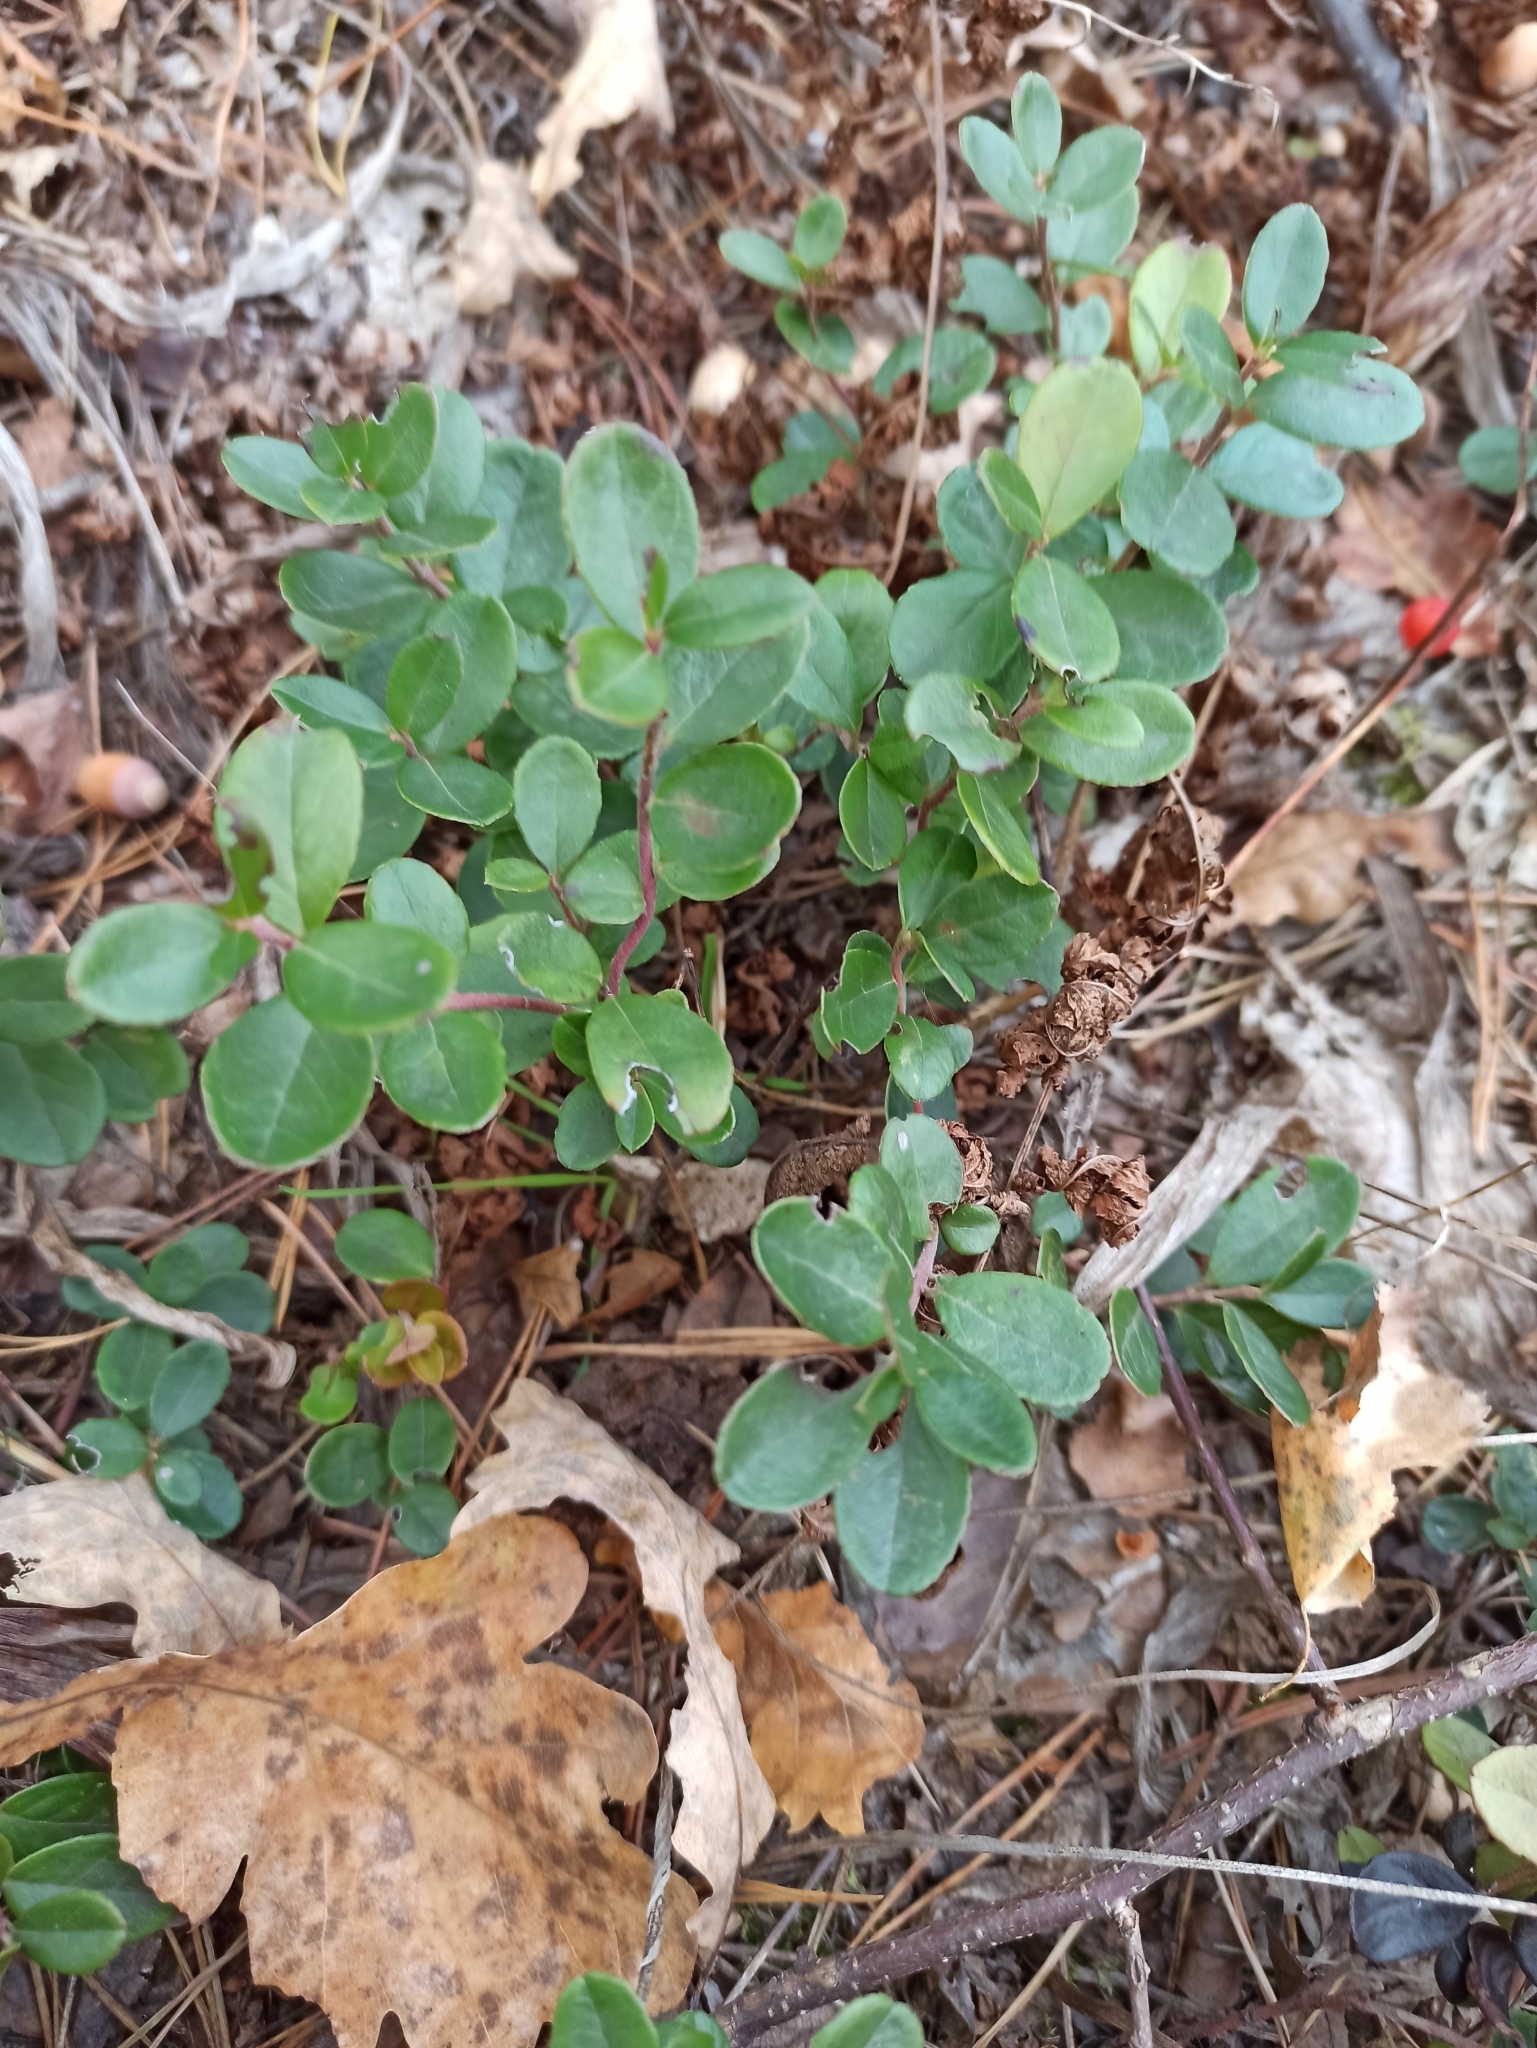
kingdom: Plantae
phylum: Tracheophyta
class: Magnoliopsida
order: Ericales
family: Ericaceae
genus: Vaccinium
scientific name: Vaccinium vitis-idaea
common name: Cowberry
